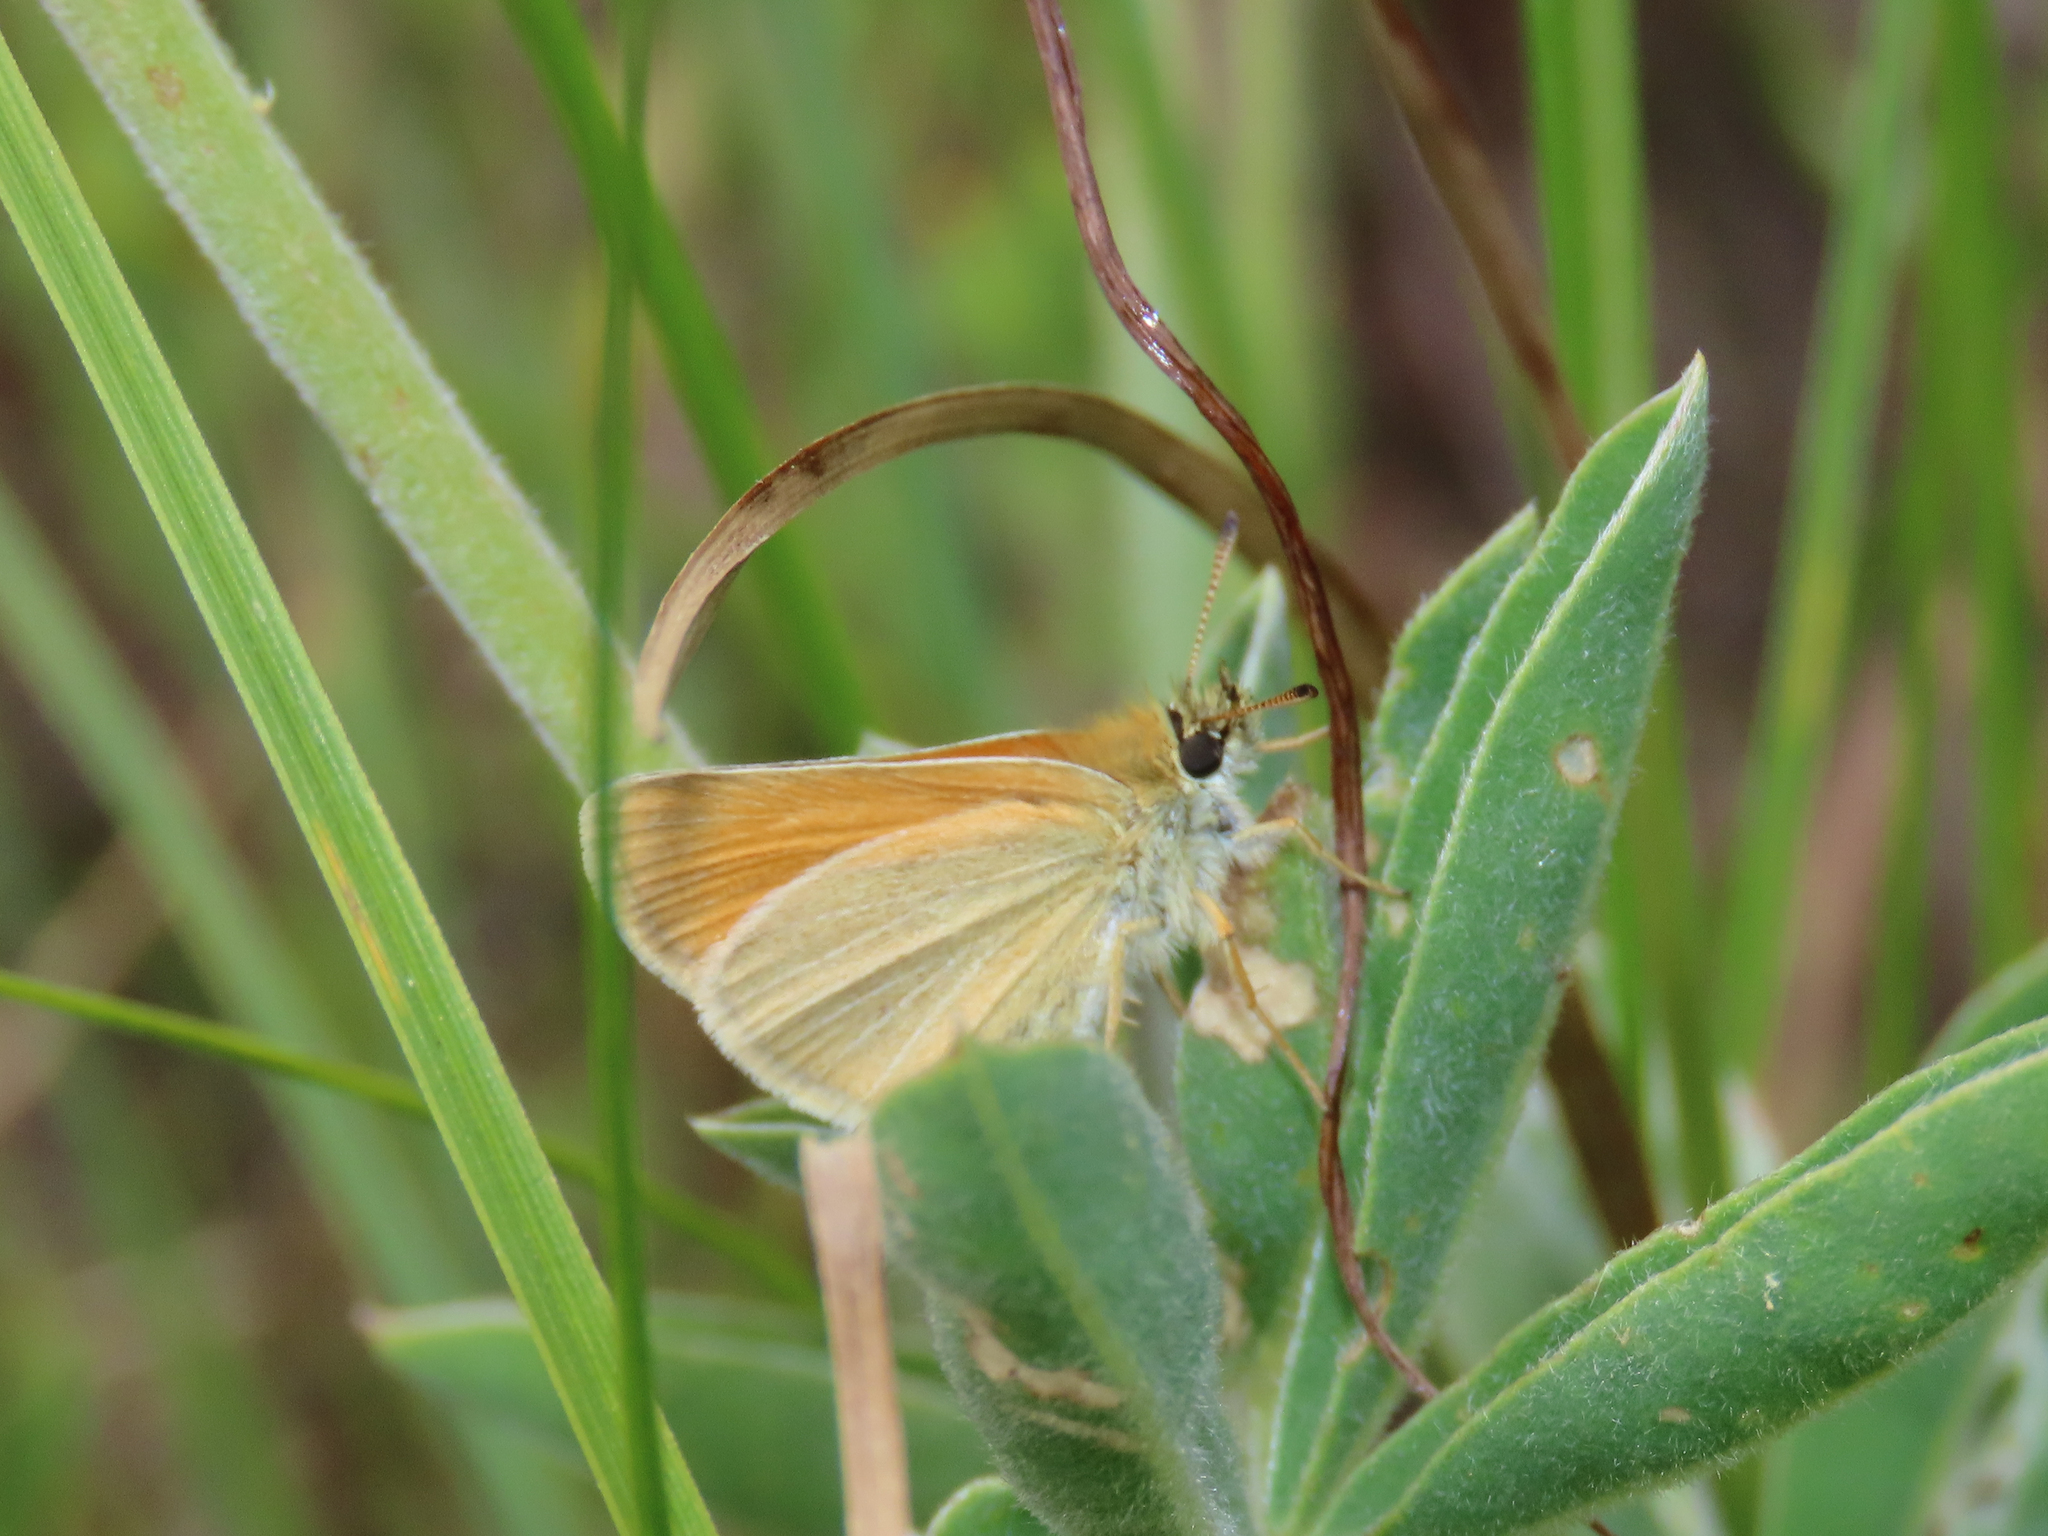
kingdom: Animalia
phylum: Arthropoda
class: Insecta
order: Lepidoptera
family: Hesperiidae
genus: Thymelicus
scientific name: Thymelicus lineola
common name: Essex skipper
